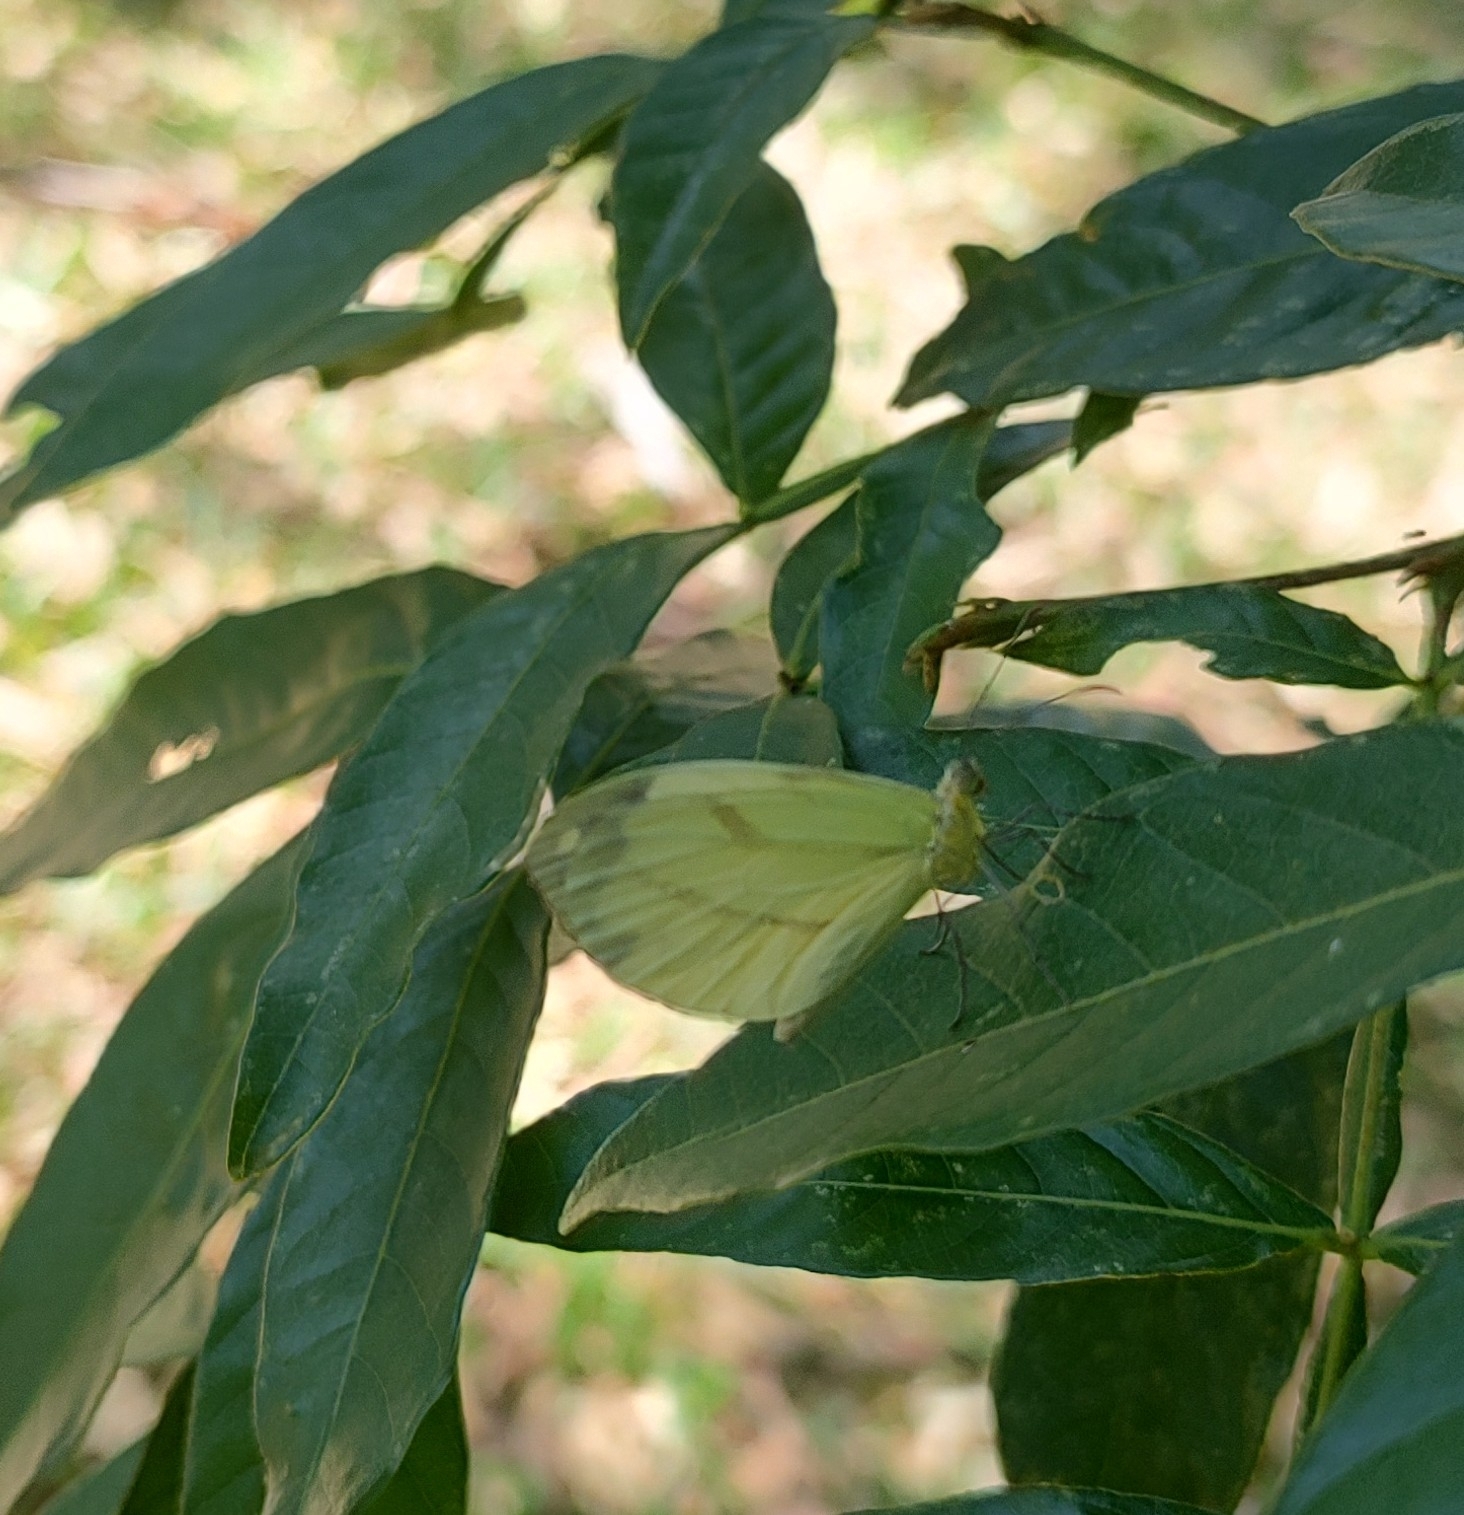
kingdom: Animalia
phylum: Arthropoda
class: Insecta
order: Lepidoptera
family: Pieridae
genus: Enantia
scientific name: Enantia lina
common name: White mimic-white
